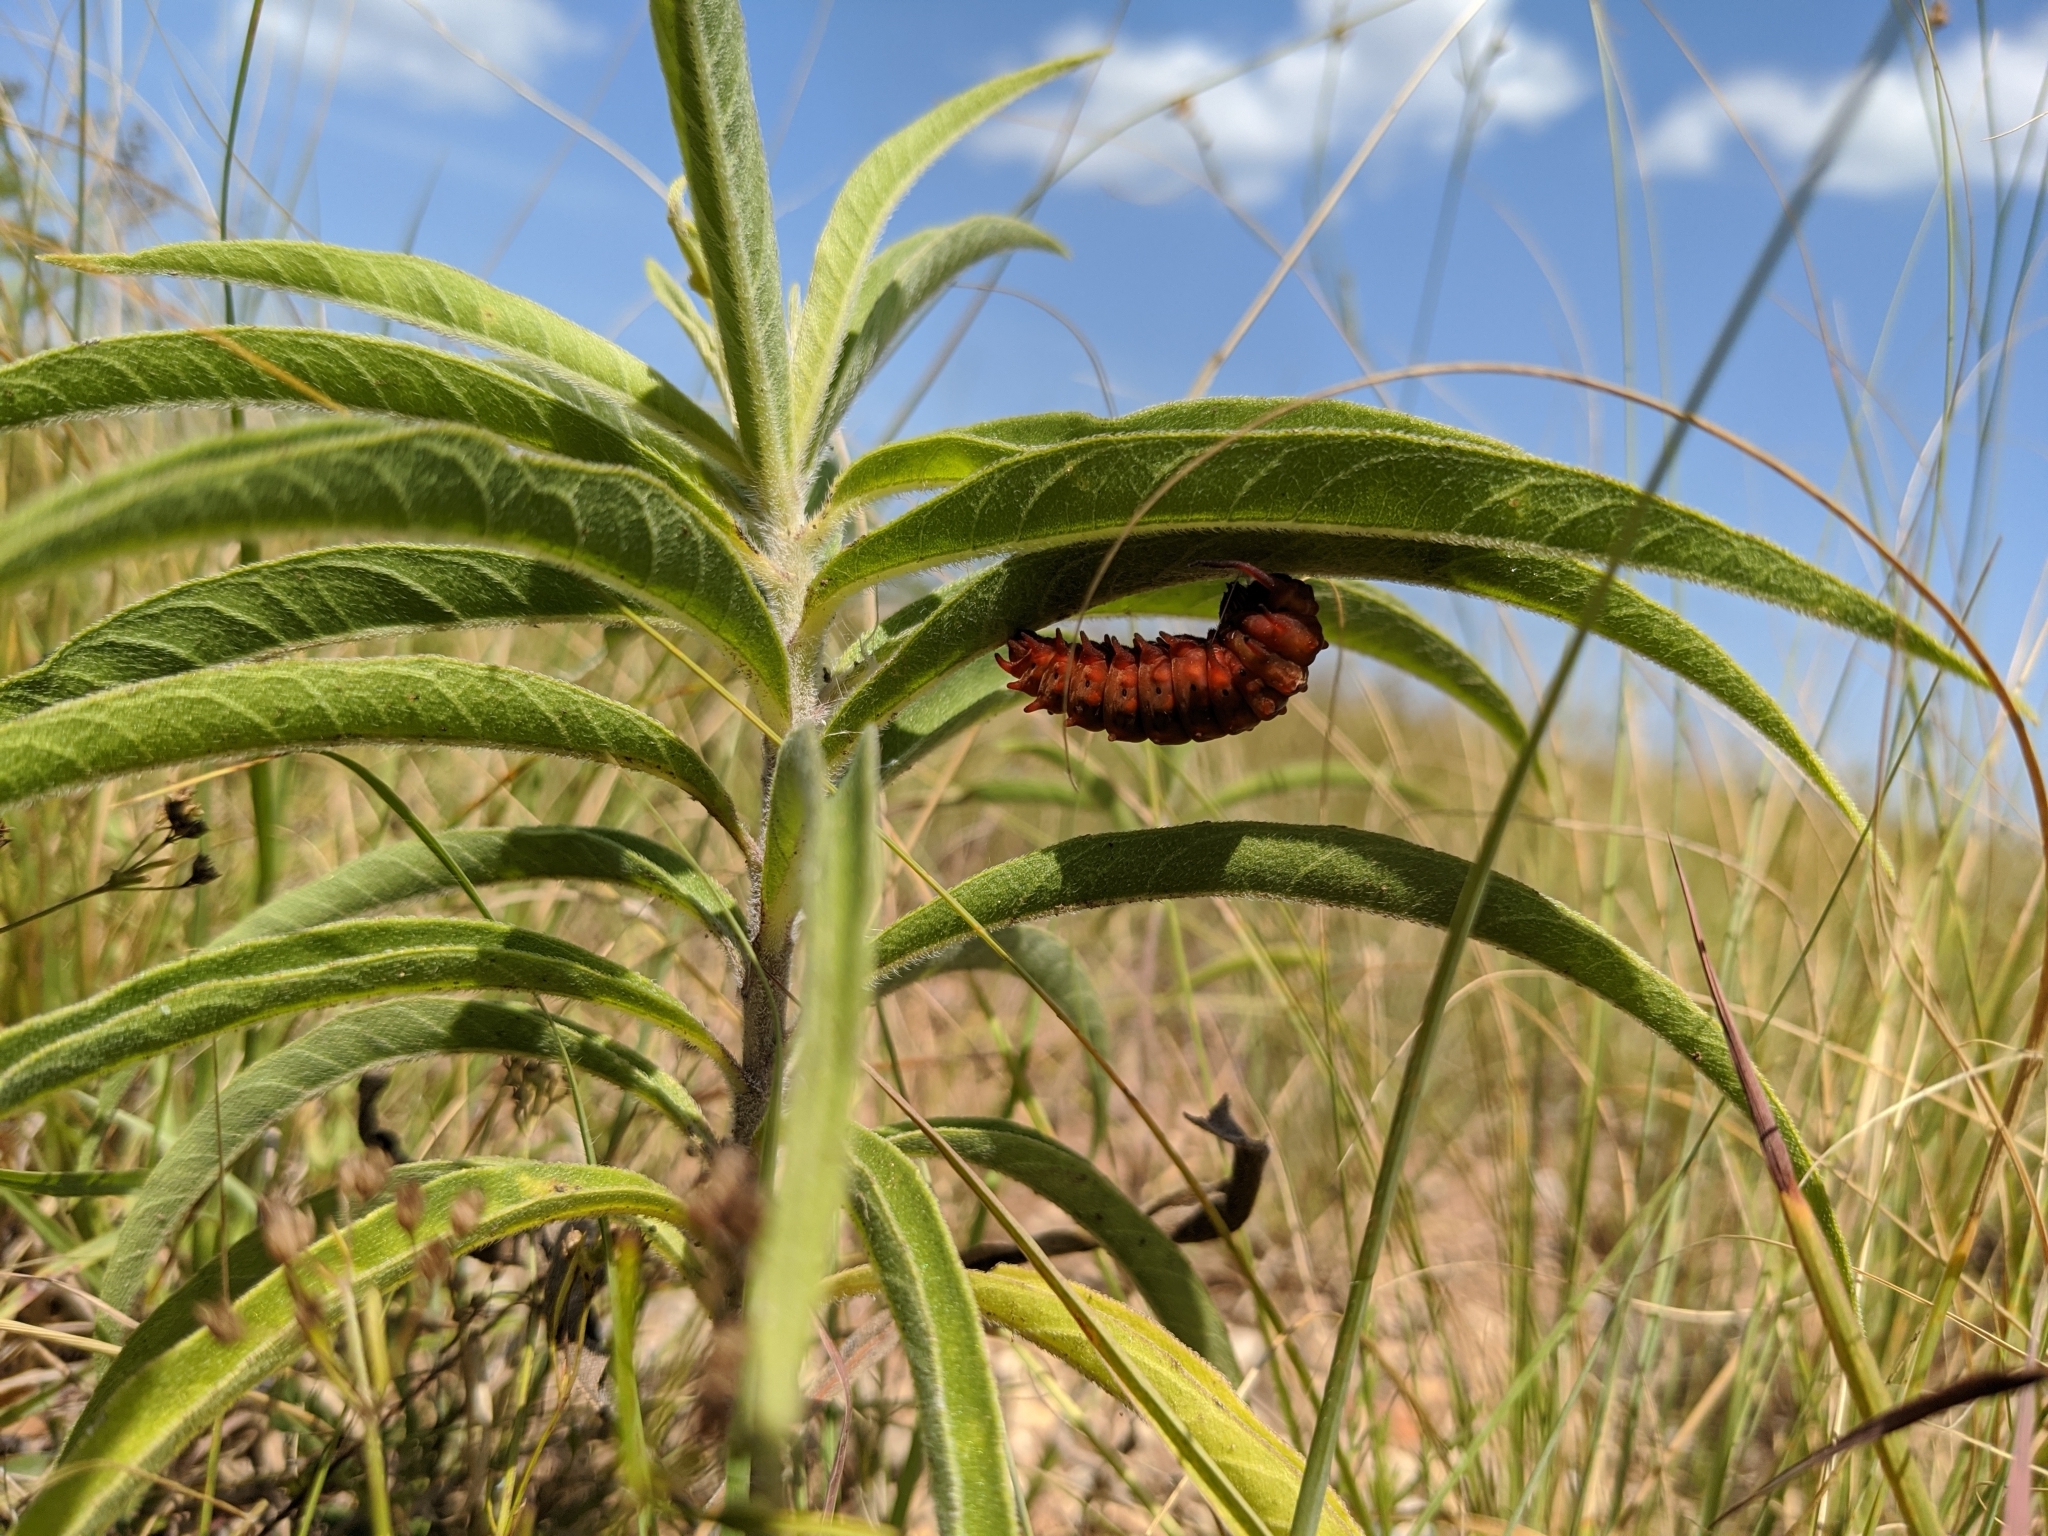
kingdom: Animalia
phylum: Arthropoda
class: Insecta
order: Lepidoptera
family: Papilionidae
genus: Battus
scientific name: Battus philenor
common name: Pipevine swallowtail
